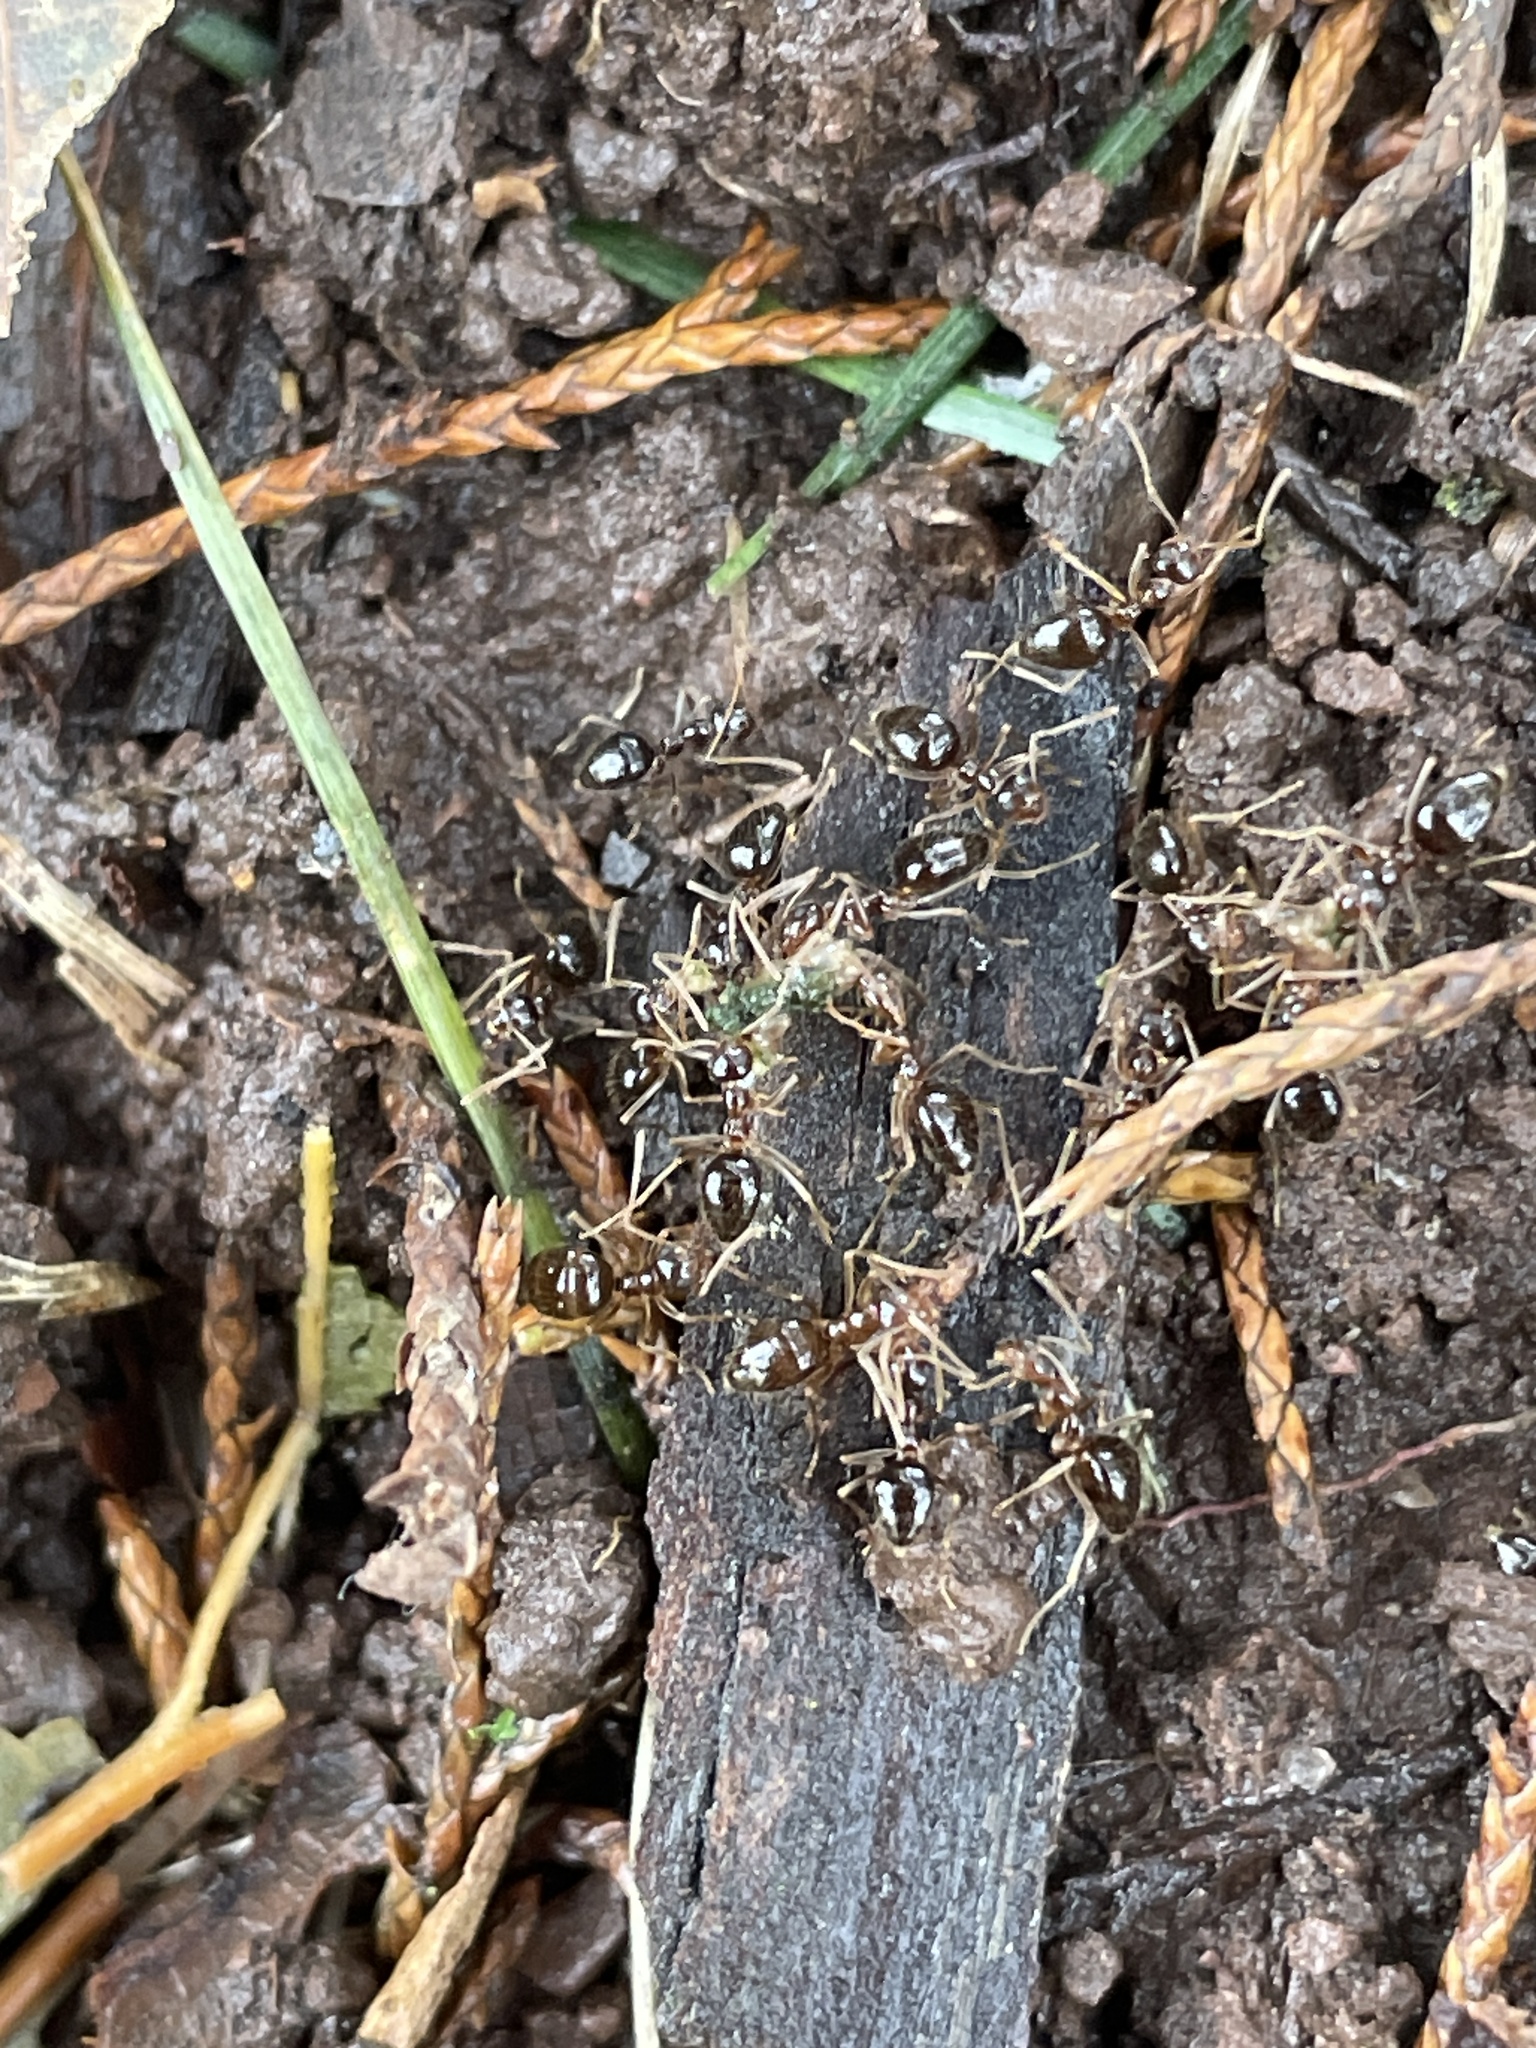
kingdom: Animalia
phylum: Arthropoda
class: Insecta
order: Hymenoptera
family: Formicidae
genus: Prenolepis
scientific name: Prenolepis imparis
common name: Small honey ant
